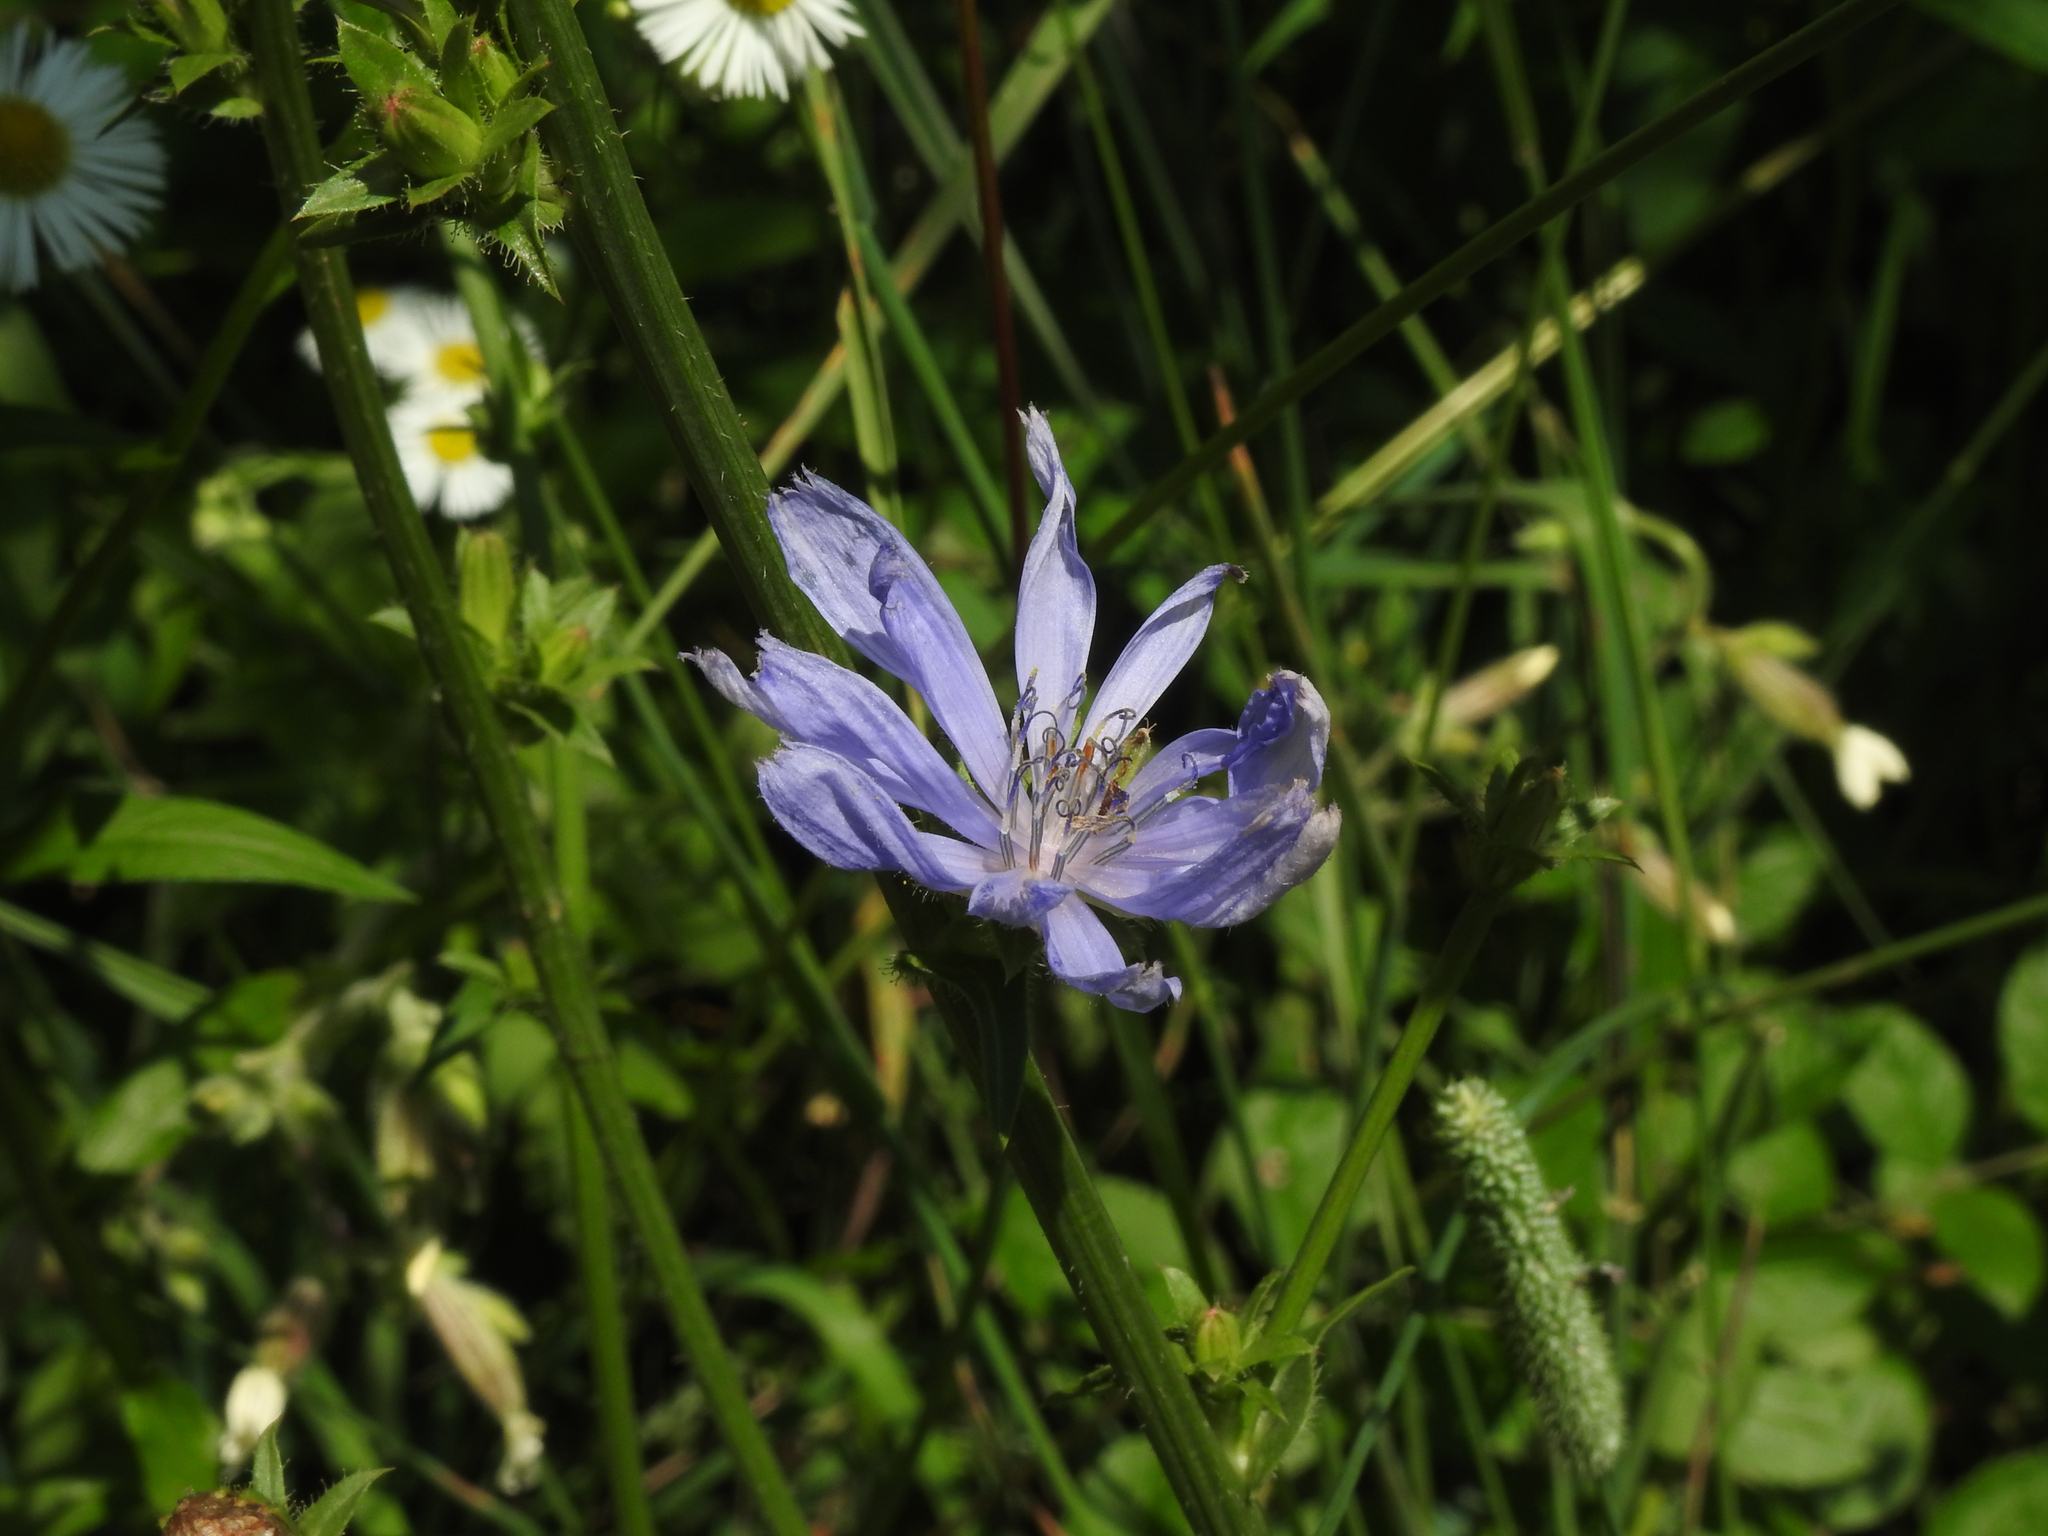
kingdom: Plantae
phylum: Tracheophyta
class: Magnoliopsida
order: Asterales
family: Asteraceae
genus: Cichorium
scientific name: Cichorium intybus
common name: Chicory
